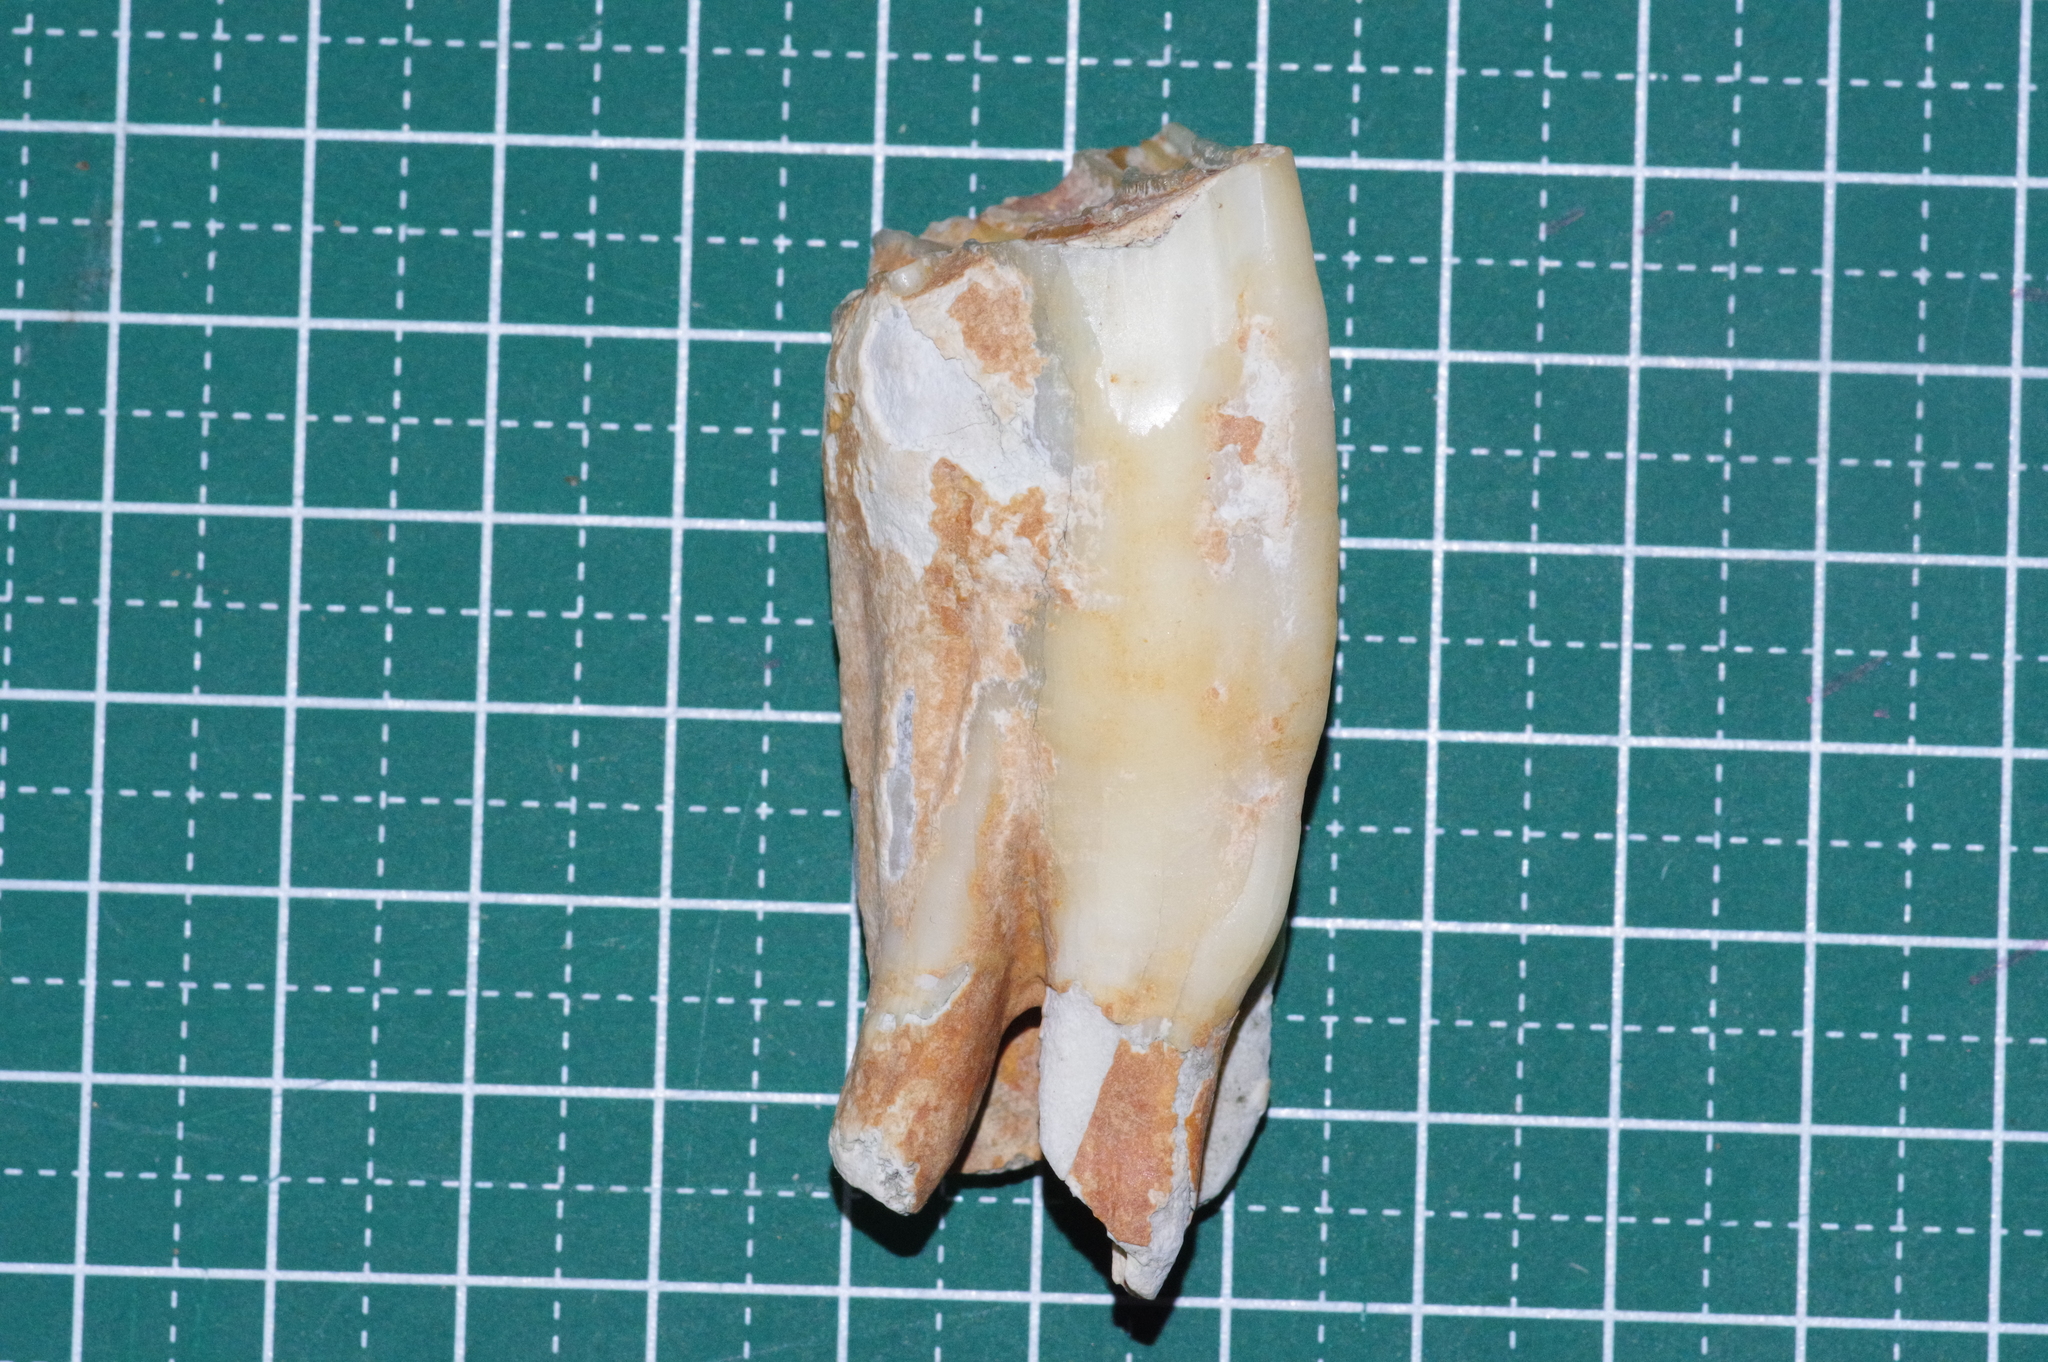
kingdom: Animalia
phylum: Chordata
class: Mammalia
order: Artiodactyla
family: Bovidae
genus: Bos
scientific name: Bos taurus
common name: Domesticated cattle
